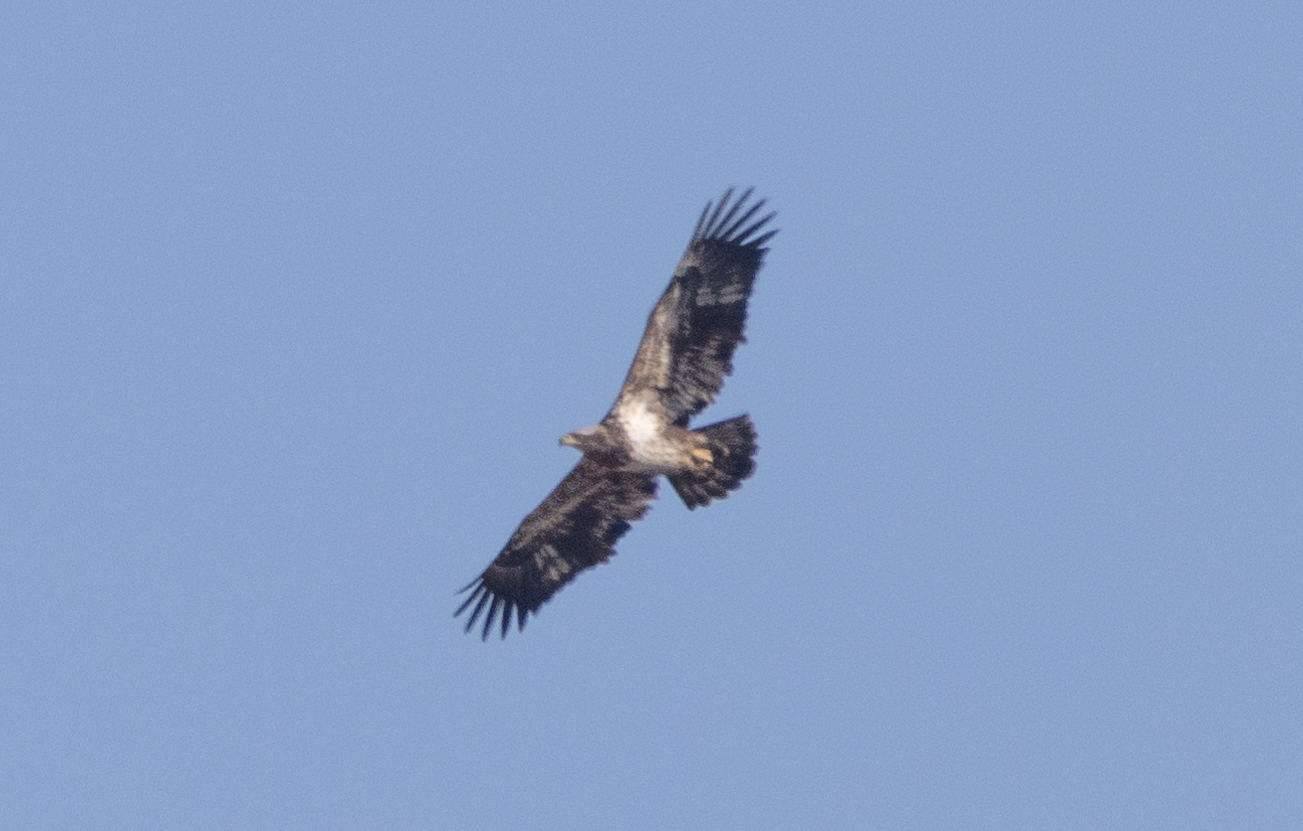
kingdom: Animalia
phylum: Chordata
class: Aves
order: Accipitriformes
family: Accipitridae
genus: Haliaeetus
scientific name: Haliaeetus leucocephalus
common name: Bald eagle
